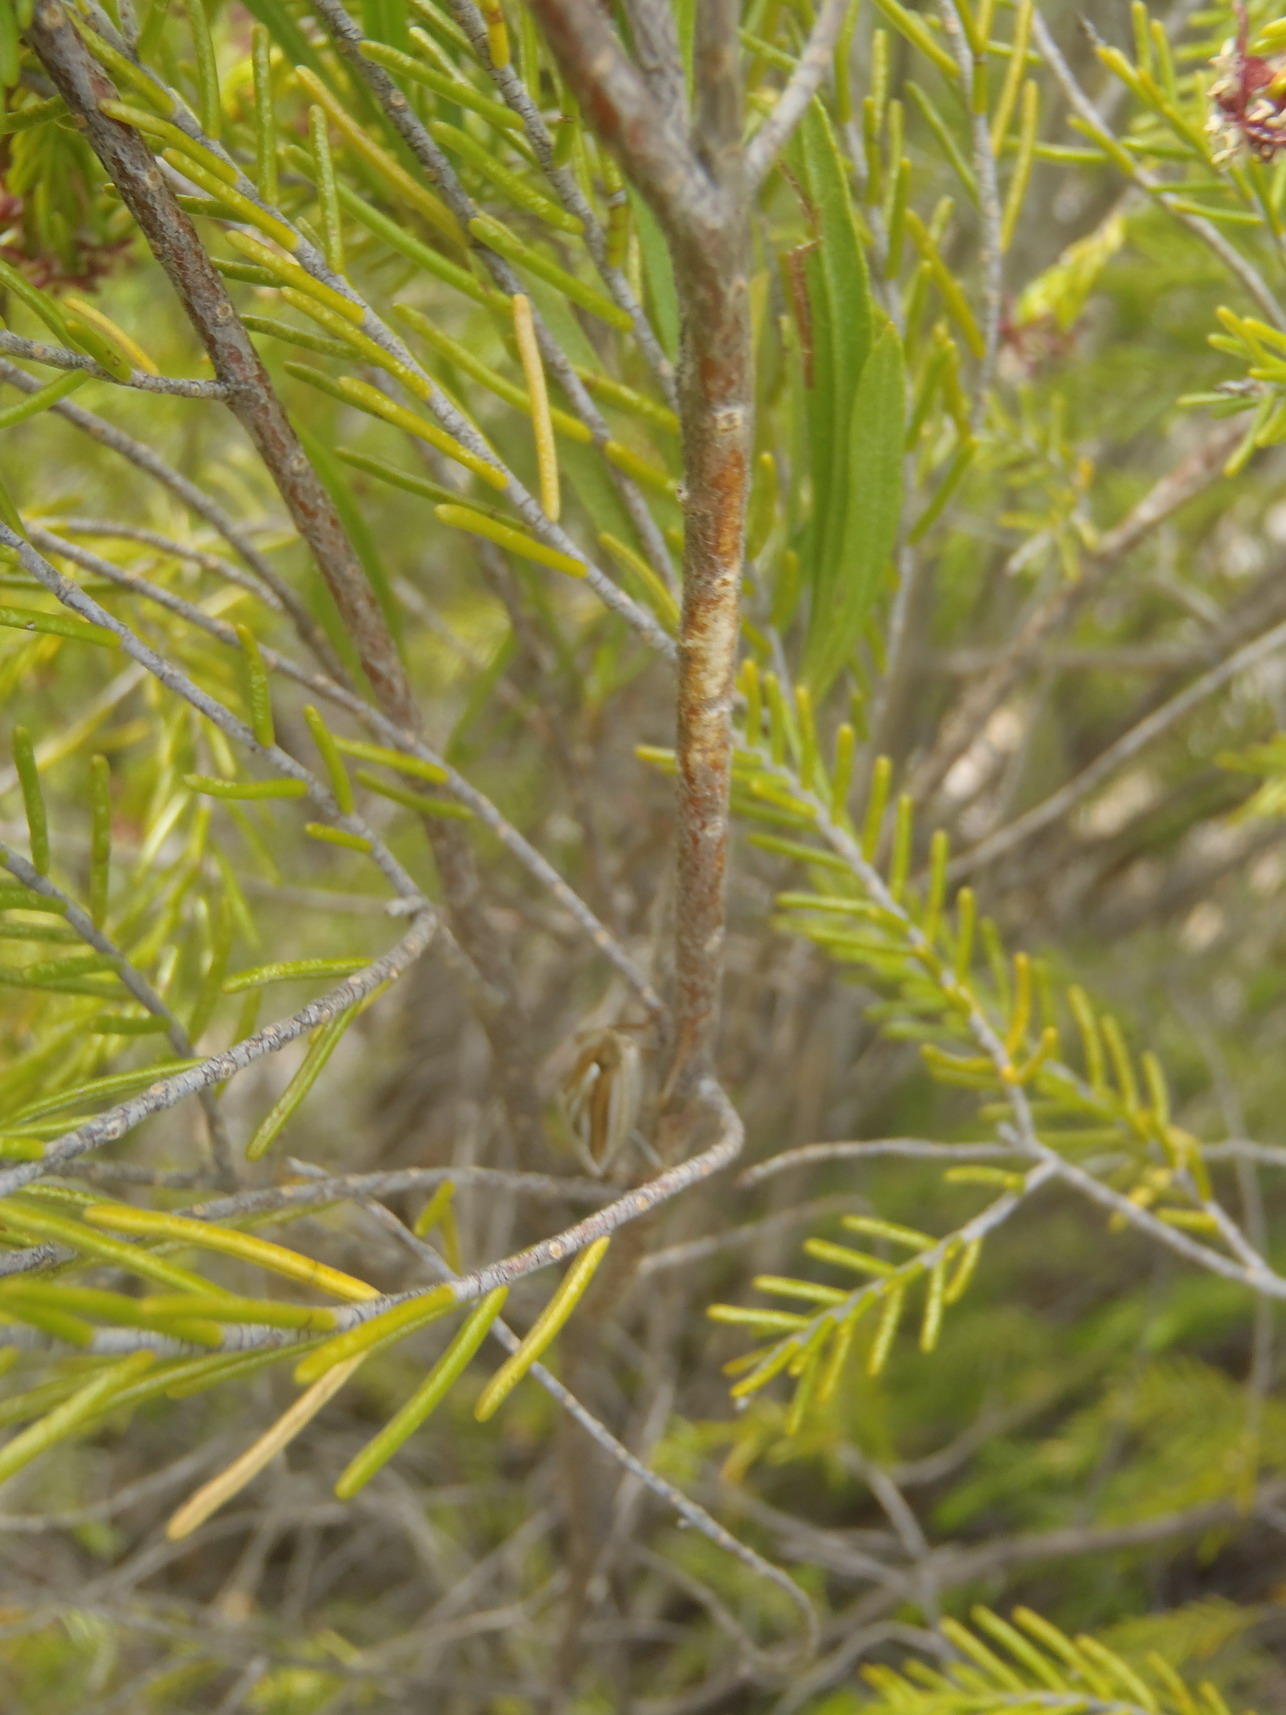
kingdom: Plantae
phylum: Tracheophyta
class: Magnoliopsida
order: Malvales
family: Thymelaeaceae
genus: Passerina
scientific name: Passerina obtusifolia
